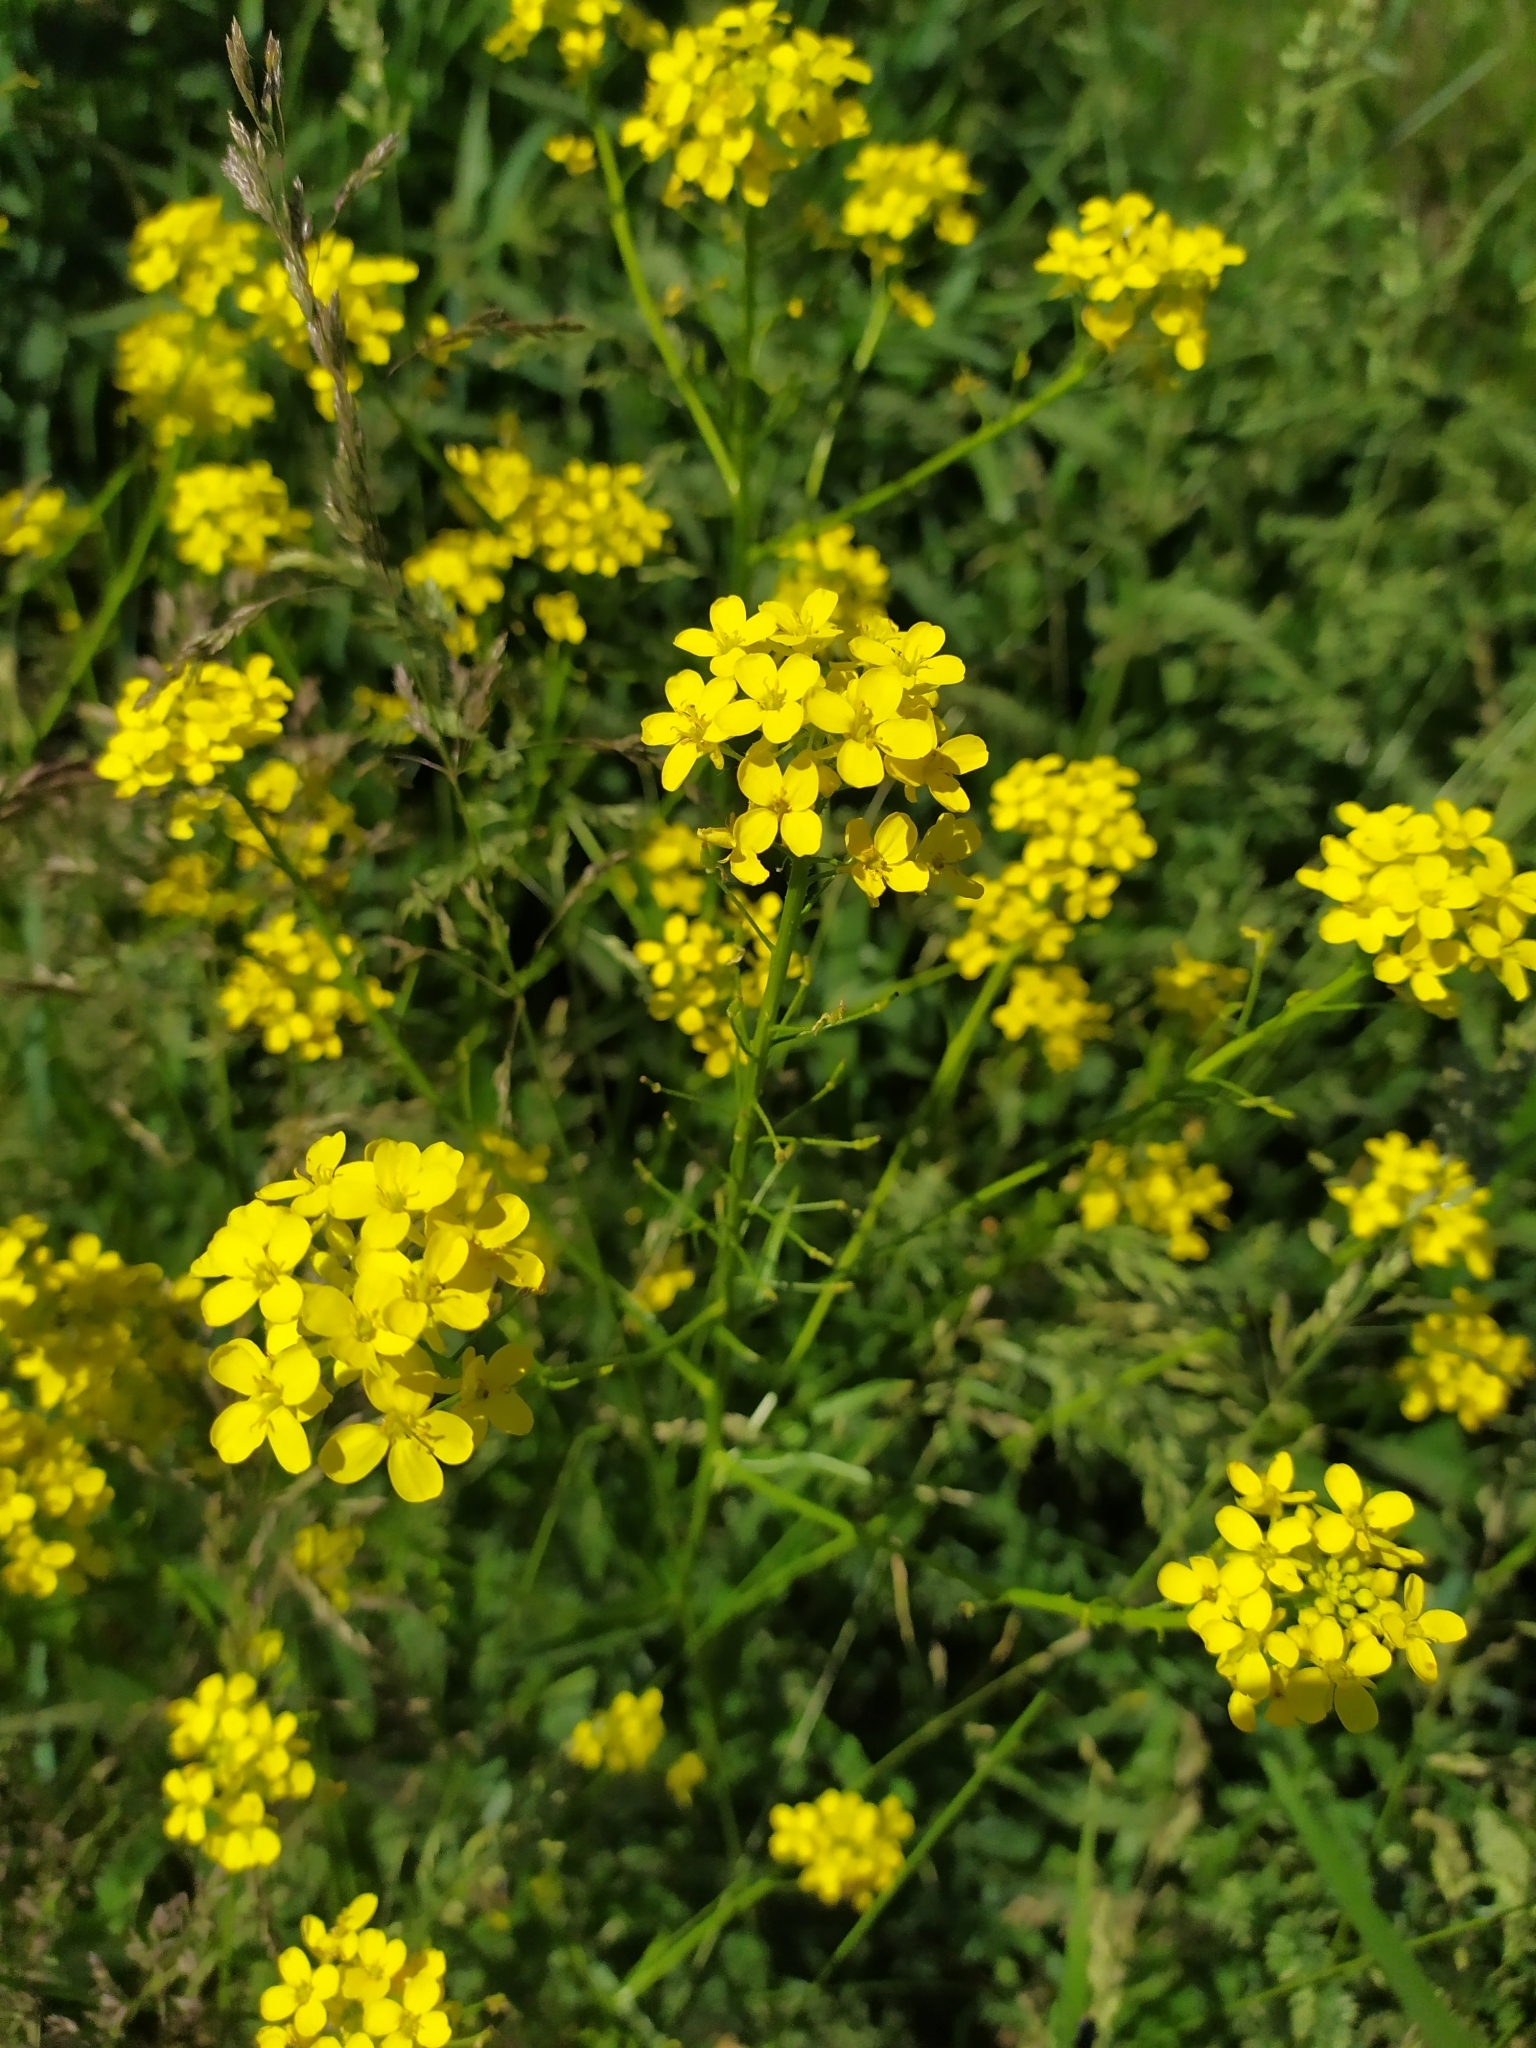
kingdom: Plantae
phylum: Tracheophyta
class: Magnoliopsida
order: Brassicales
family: Brassicaceae
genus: Bunias
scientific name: Bunias orientalis
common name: Warty-cabbage
